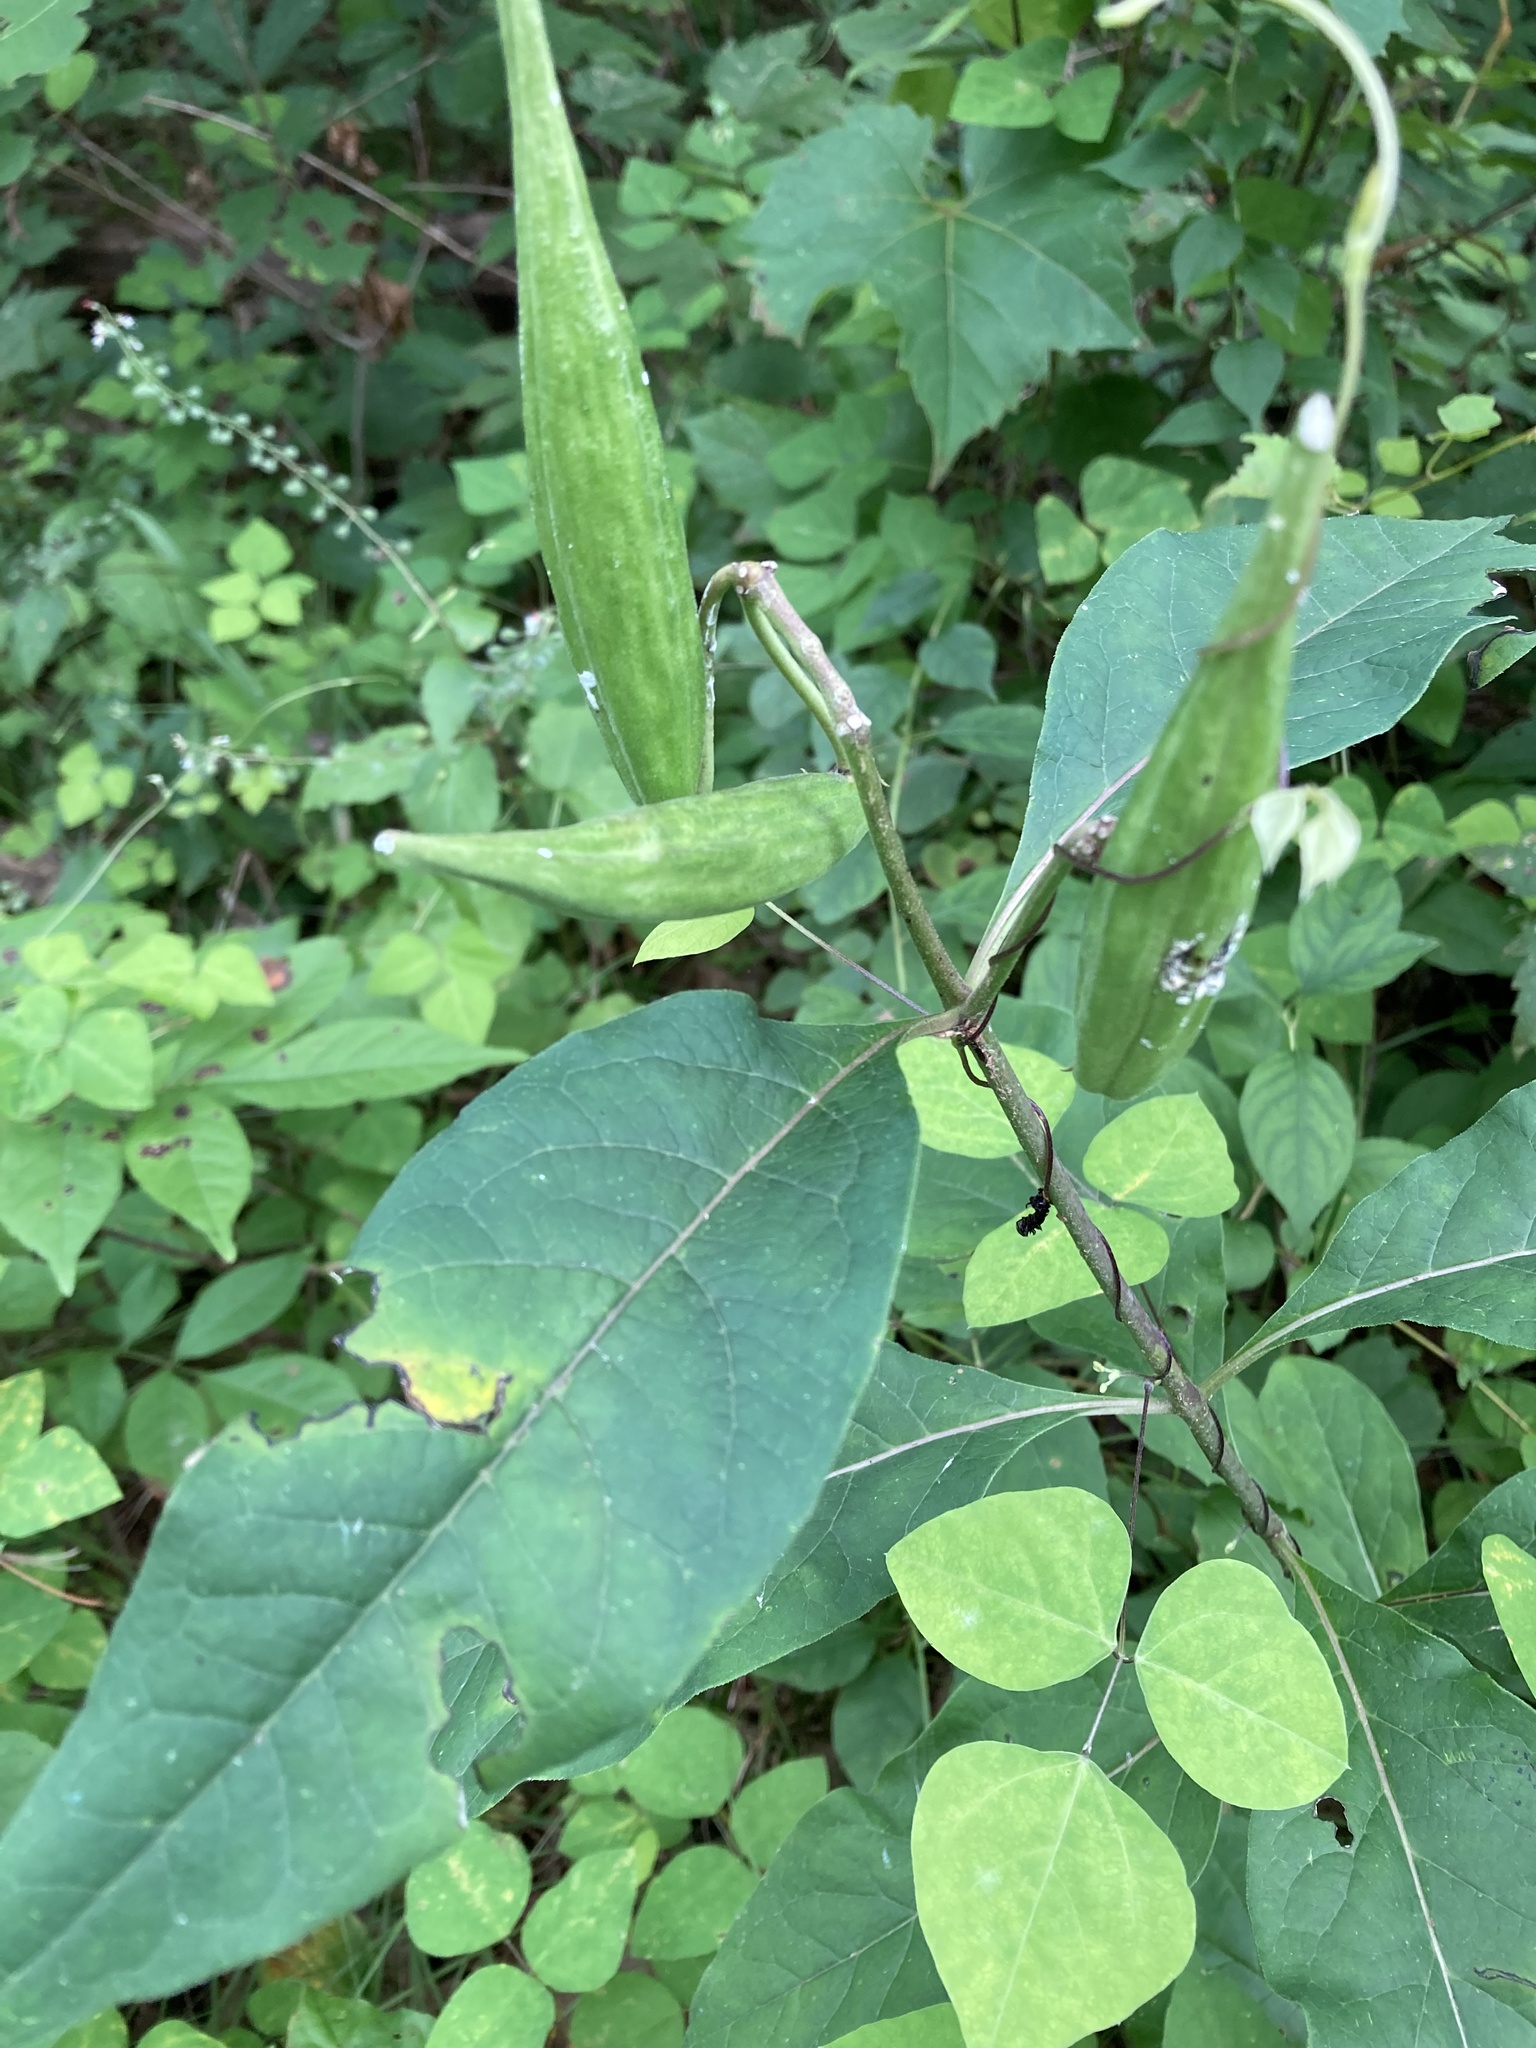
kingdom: Plantae
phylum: Tracheophyta
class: Magnoliopsida
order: Gentianales
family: Apocynaceae
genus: Asclepias
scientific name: Asclepias exaltata
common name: Poke milkweed
